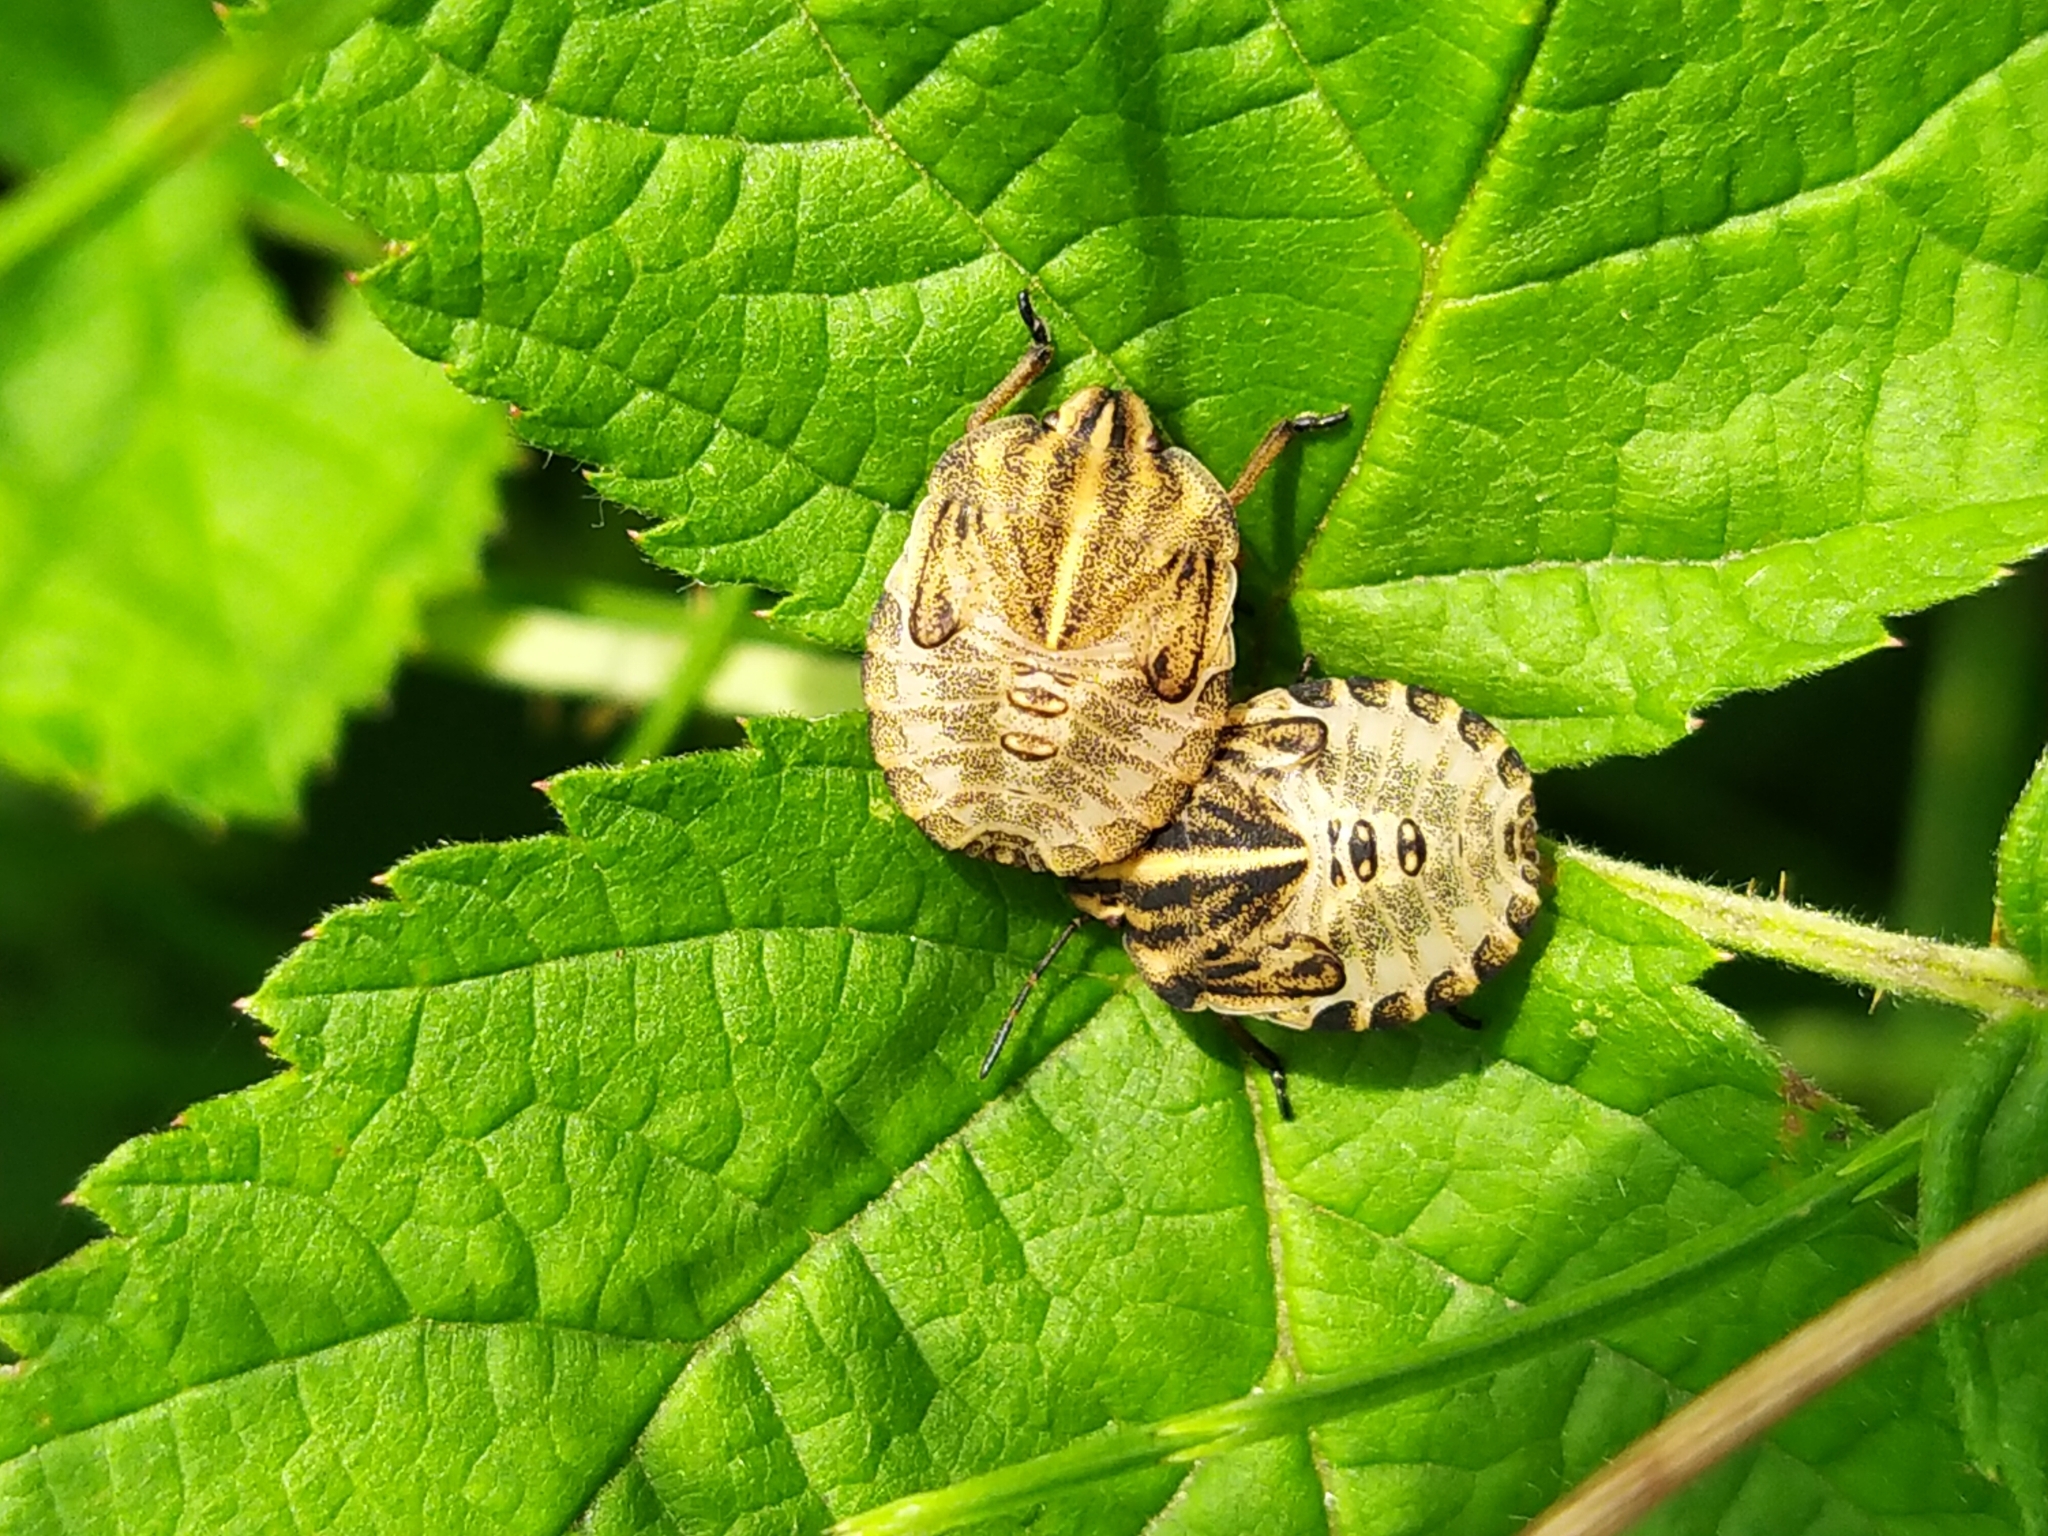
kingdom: Animalia
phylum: Arthropoda
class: Insecta
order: Hemiptera
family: Pentatomidae
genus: Graphosoma
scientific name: Graphosoma italicum
